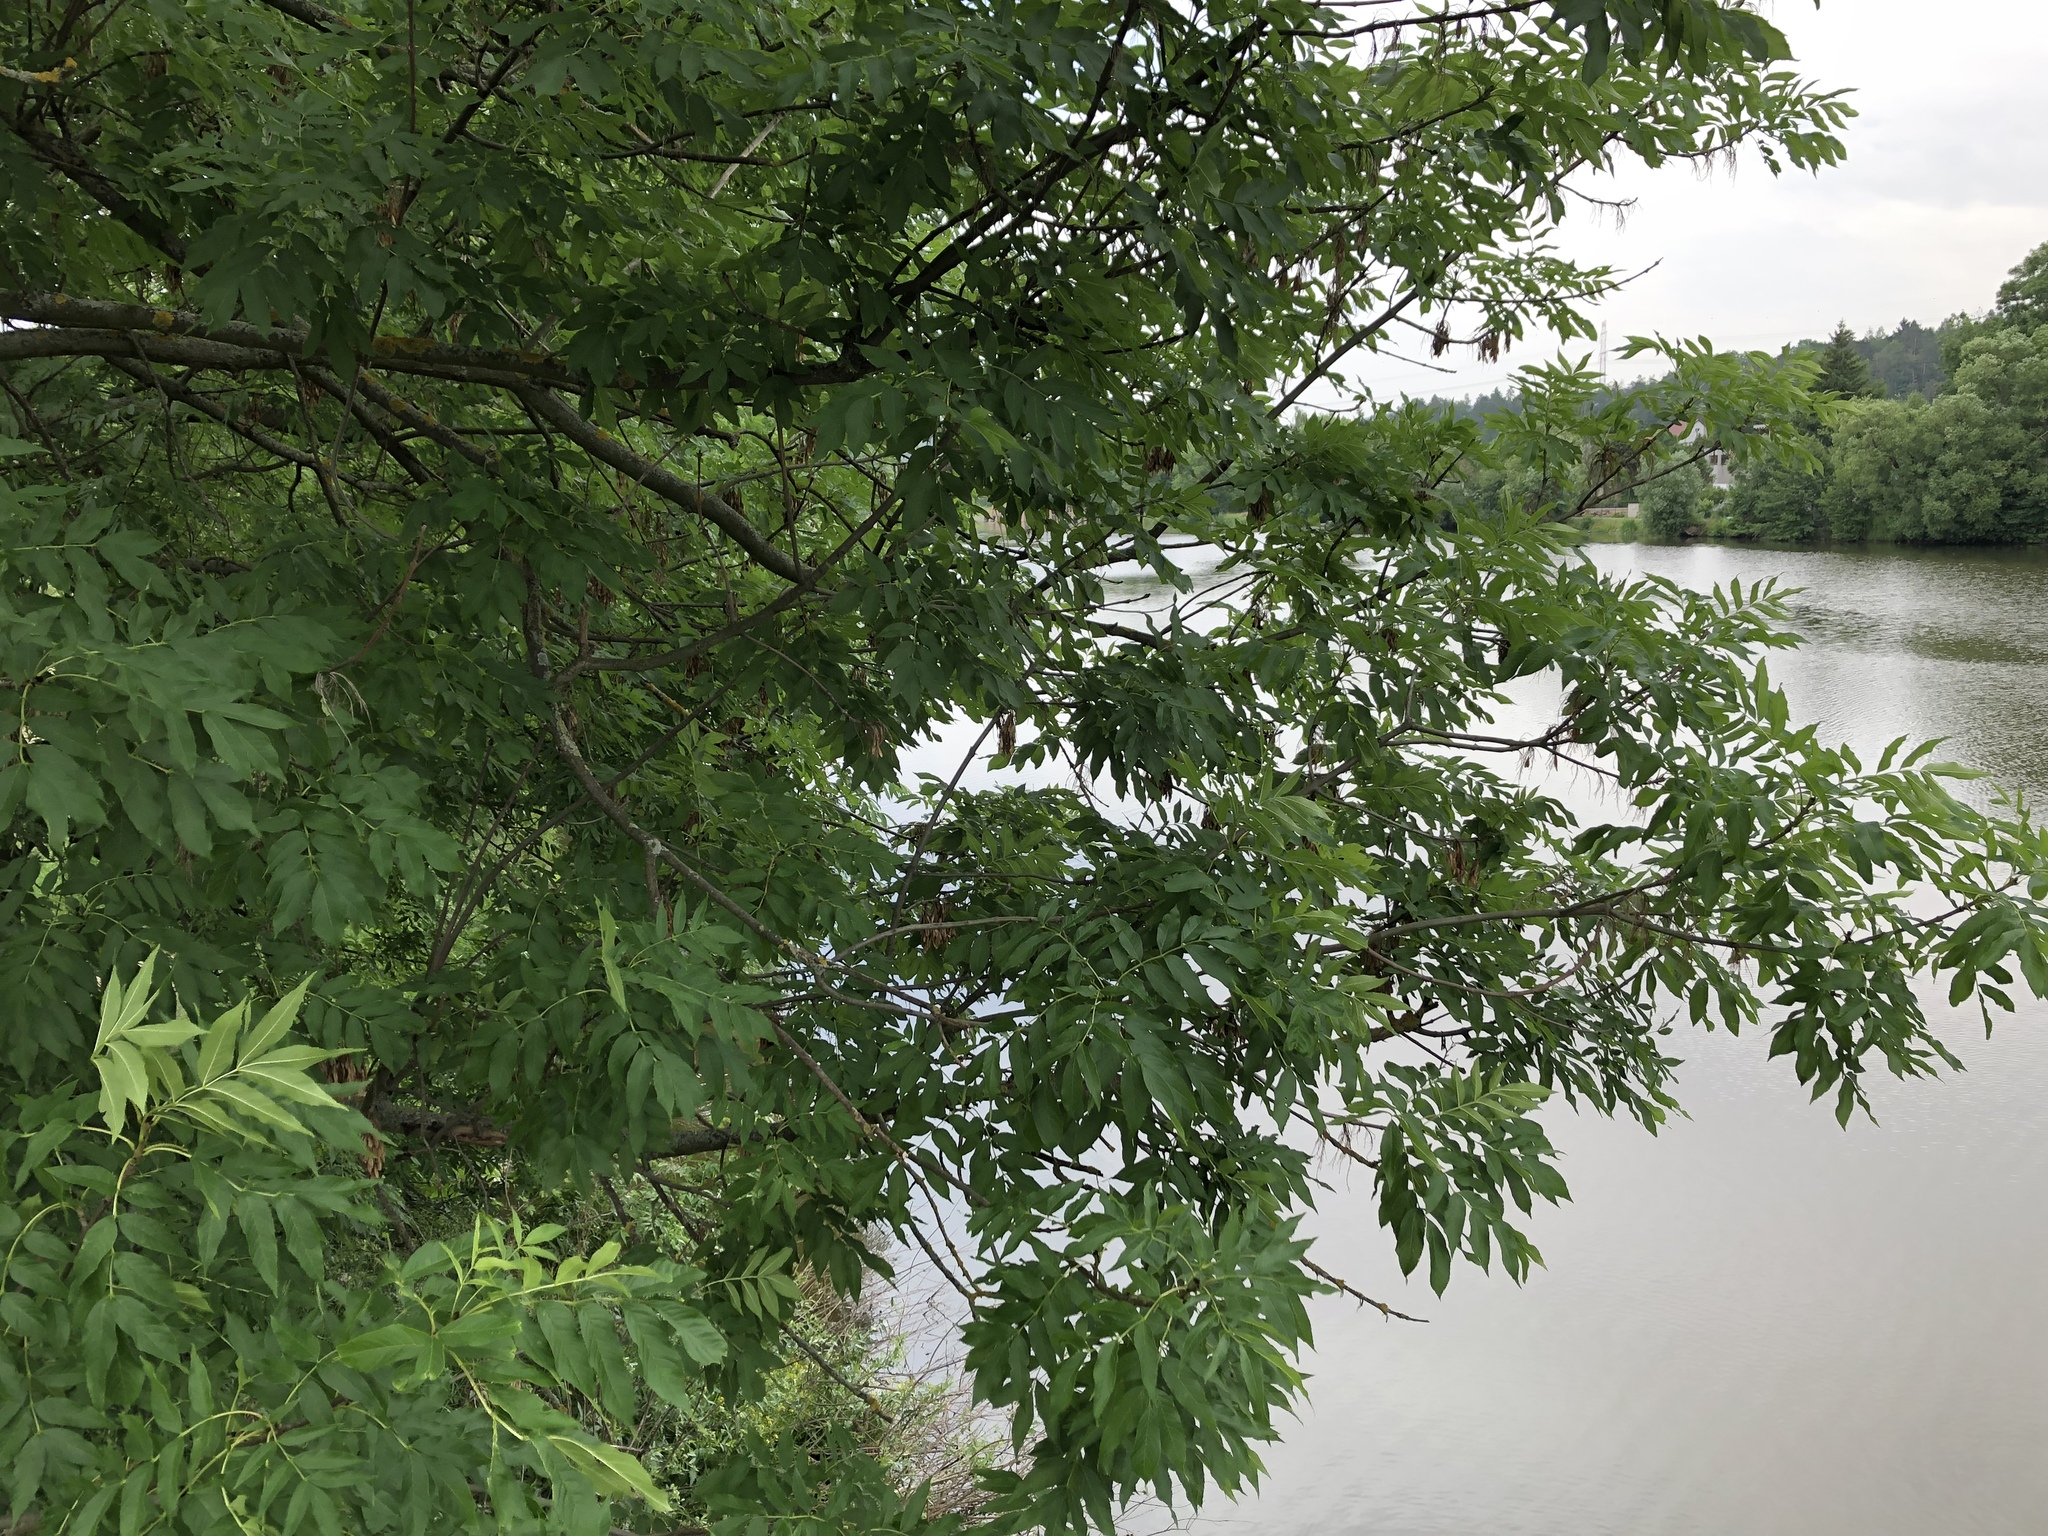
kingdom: Plantae
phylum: Tracheophyta
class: Magnoliopsida
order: Lamiales
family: Oleaceae
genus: Fraxinus
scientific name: Fraxinus excelsior
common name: European ash
